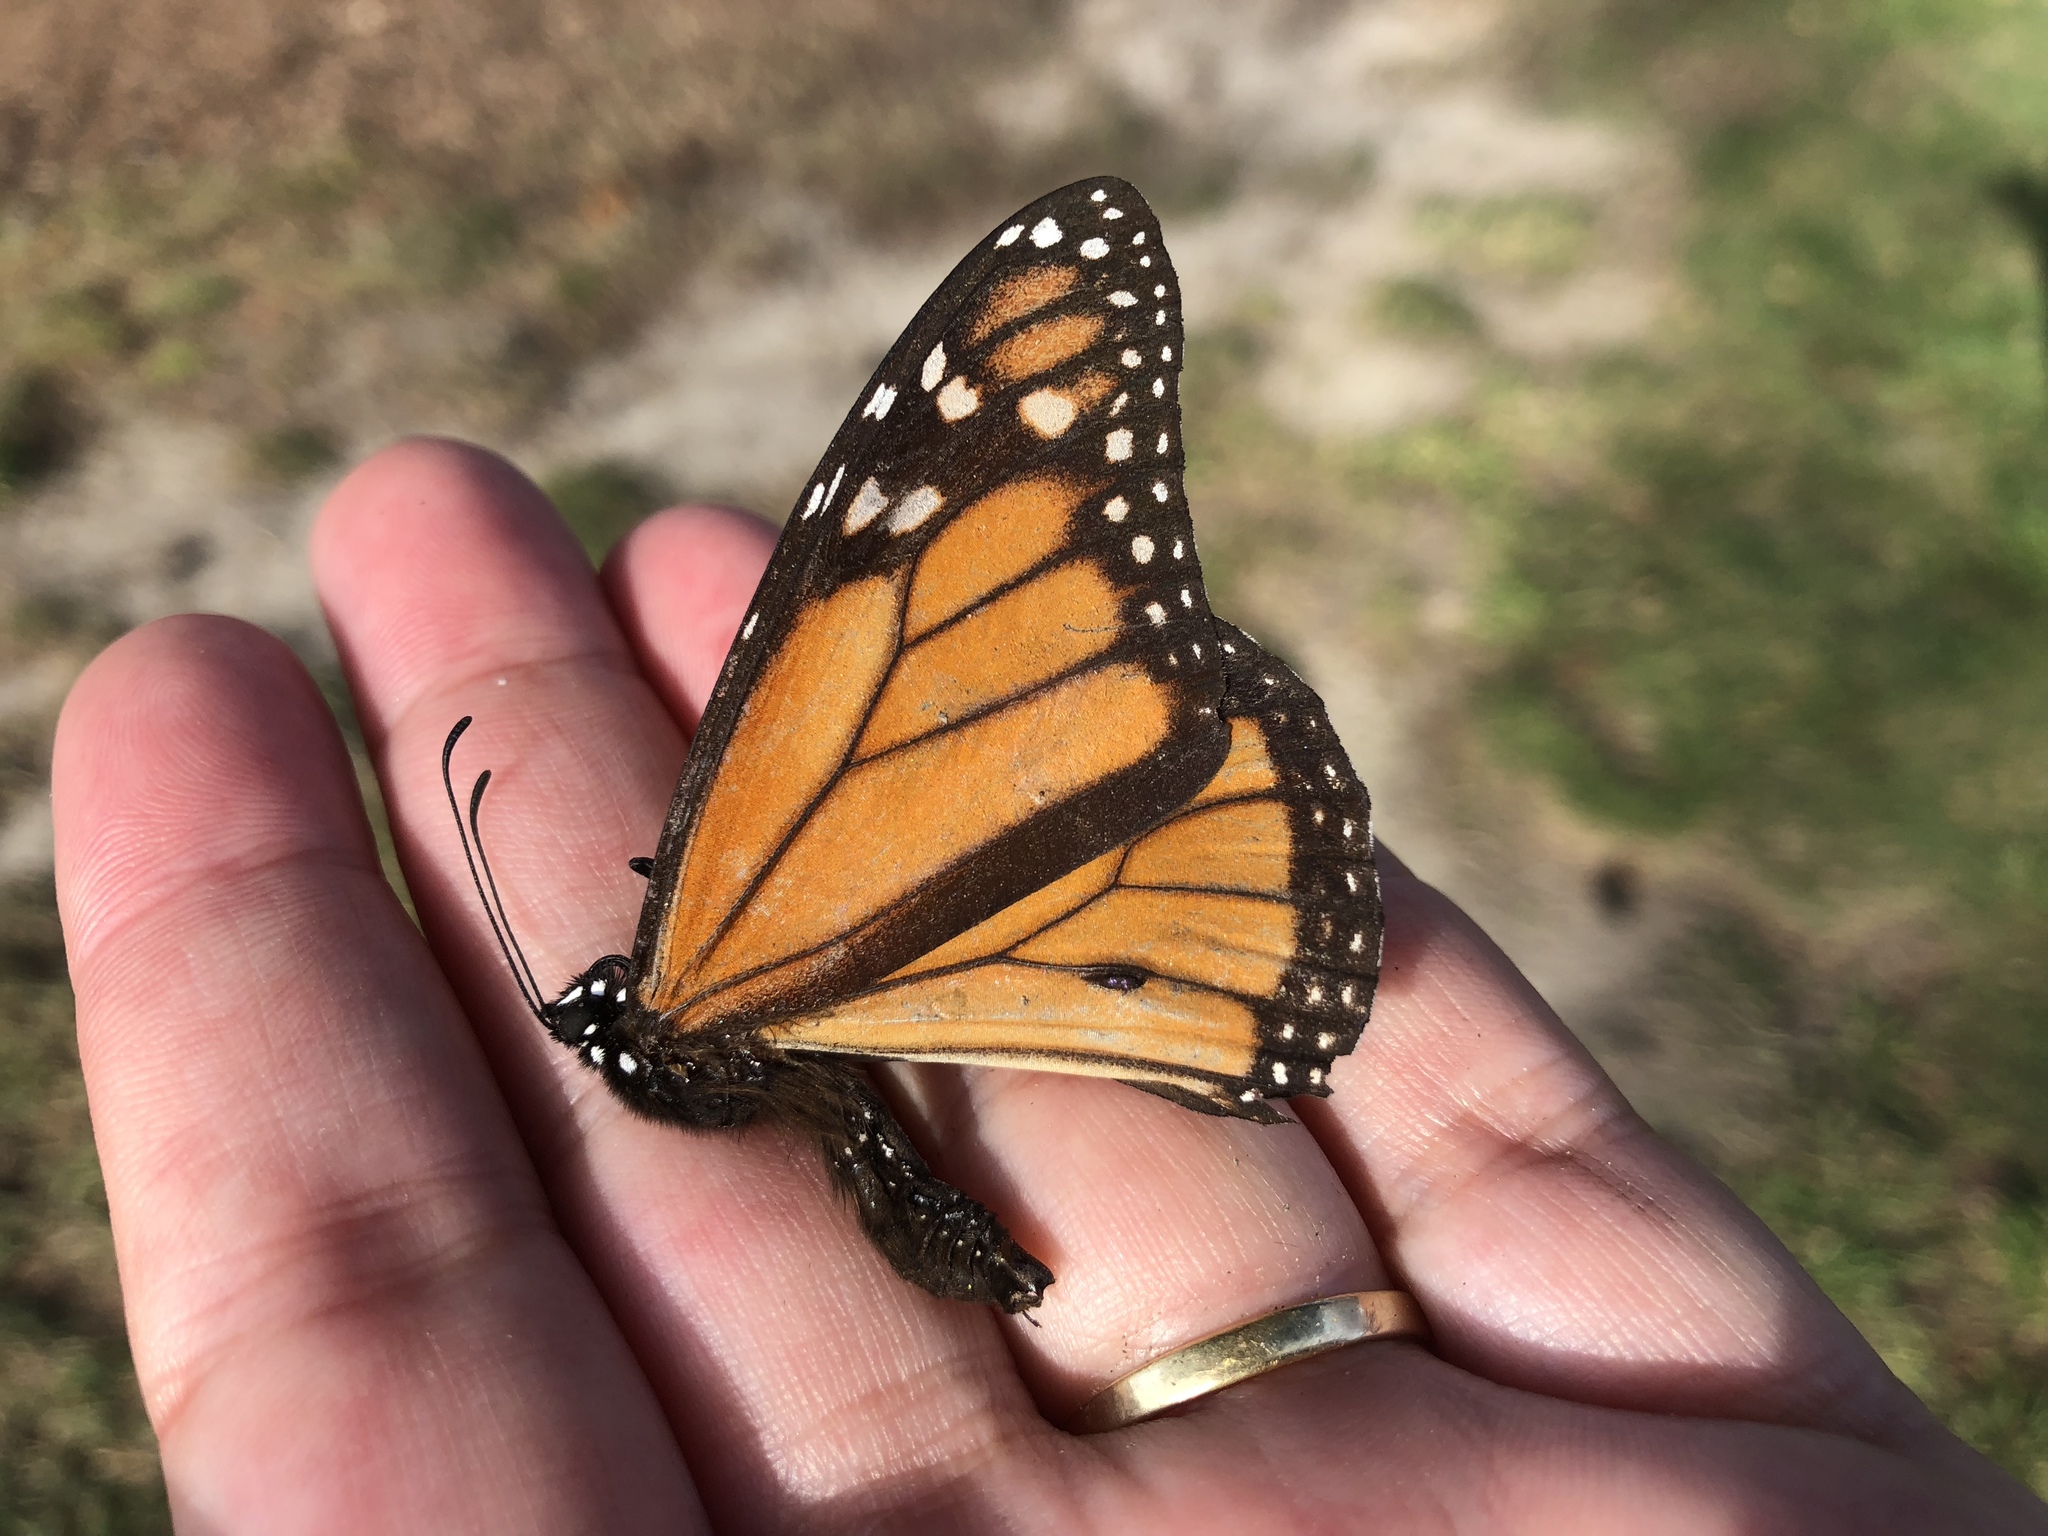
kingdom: Animalia
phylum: Arthropoda
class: Insecta
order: Lepidoptera
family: Nymphalidae
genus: Danaus
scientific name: Danaus plexippus
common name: Monarch
